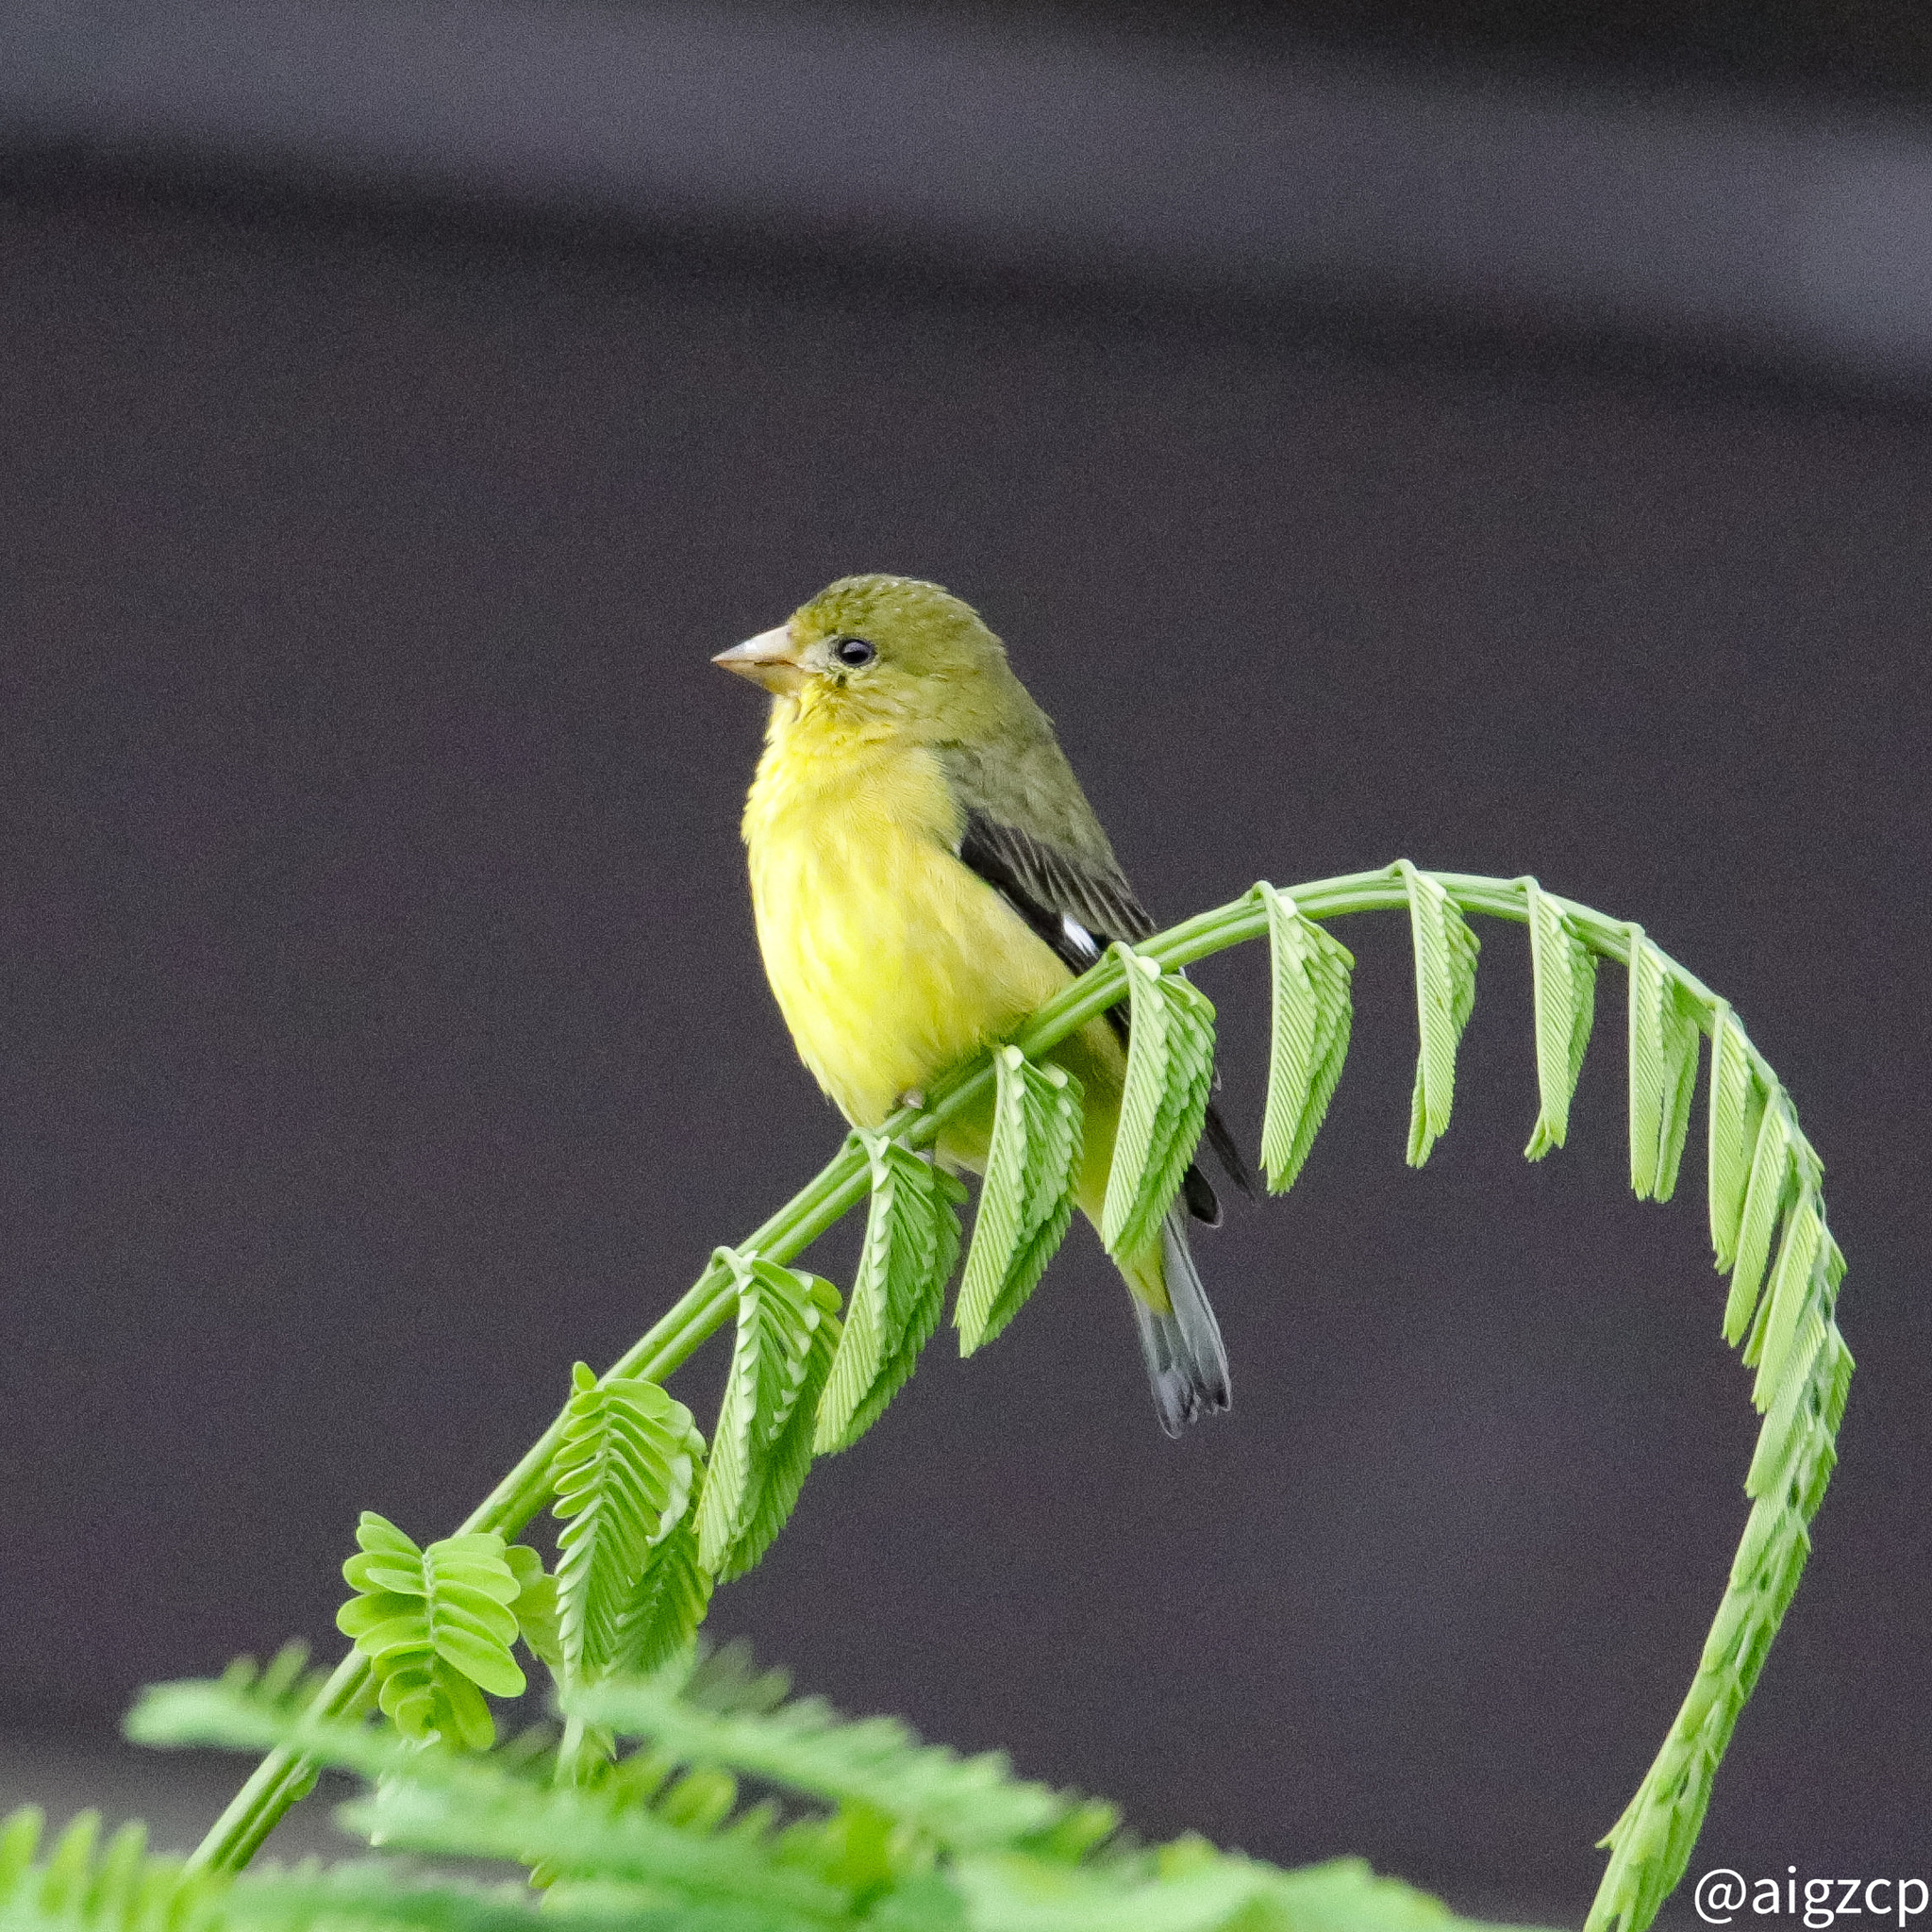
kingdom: Animalia
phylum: Chordata
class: Aves
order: Passeriformes
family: Fringillidae
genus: Spinus
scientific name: Spinus psaltria
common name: Lesser goldfinch
